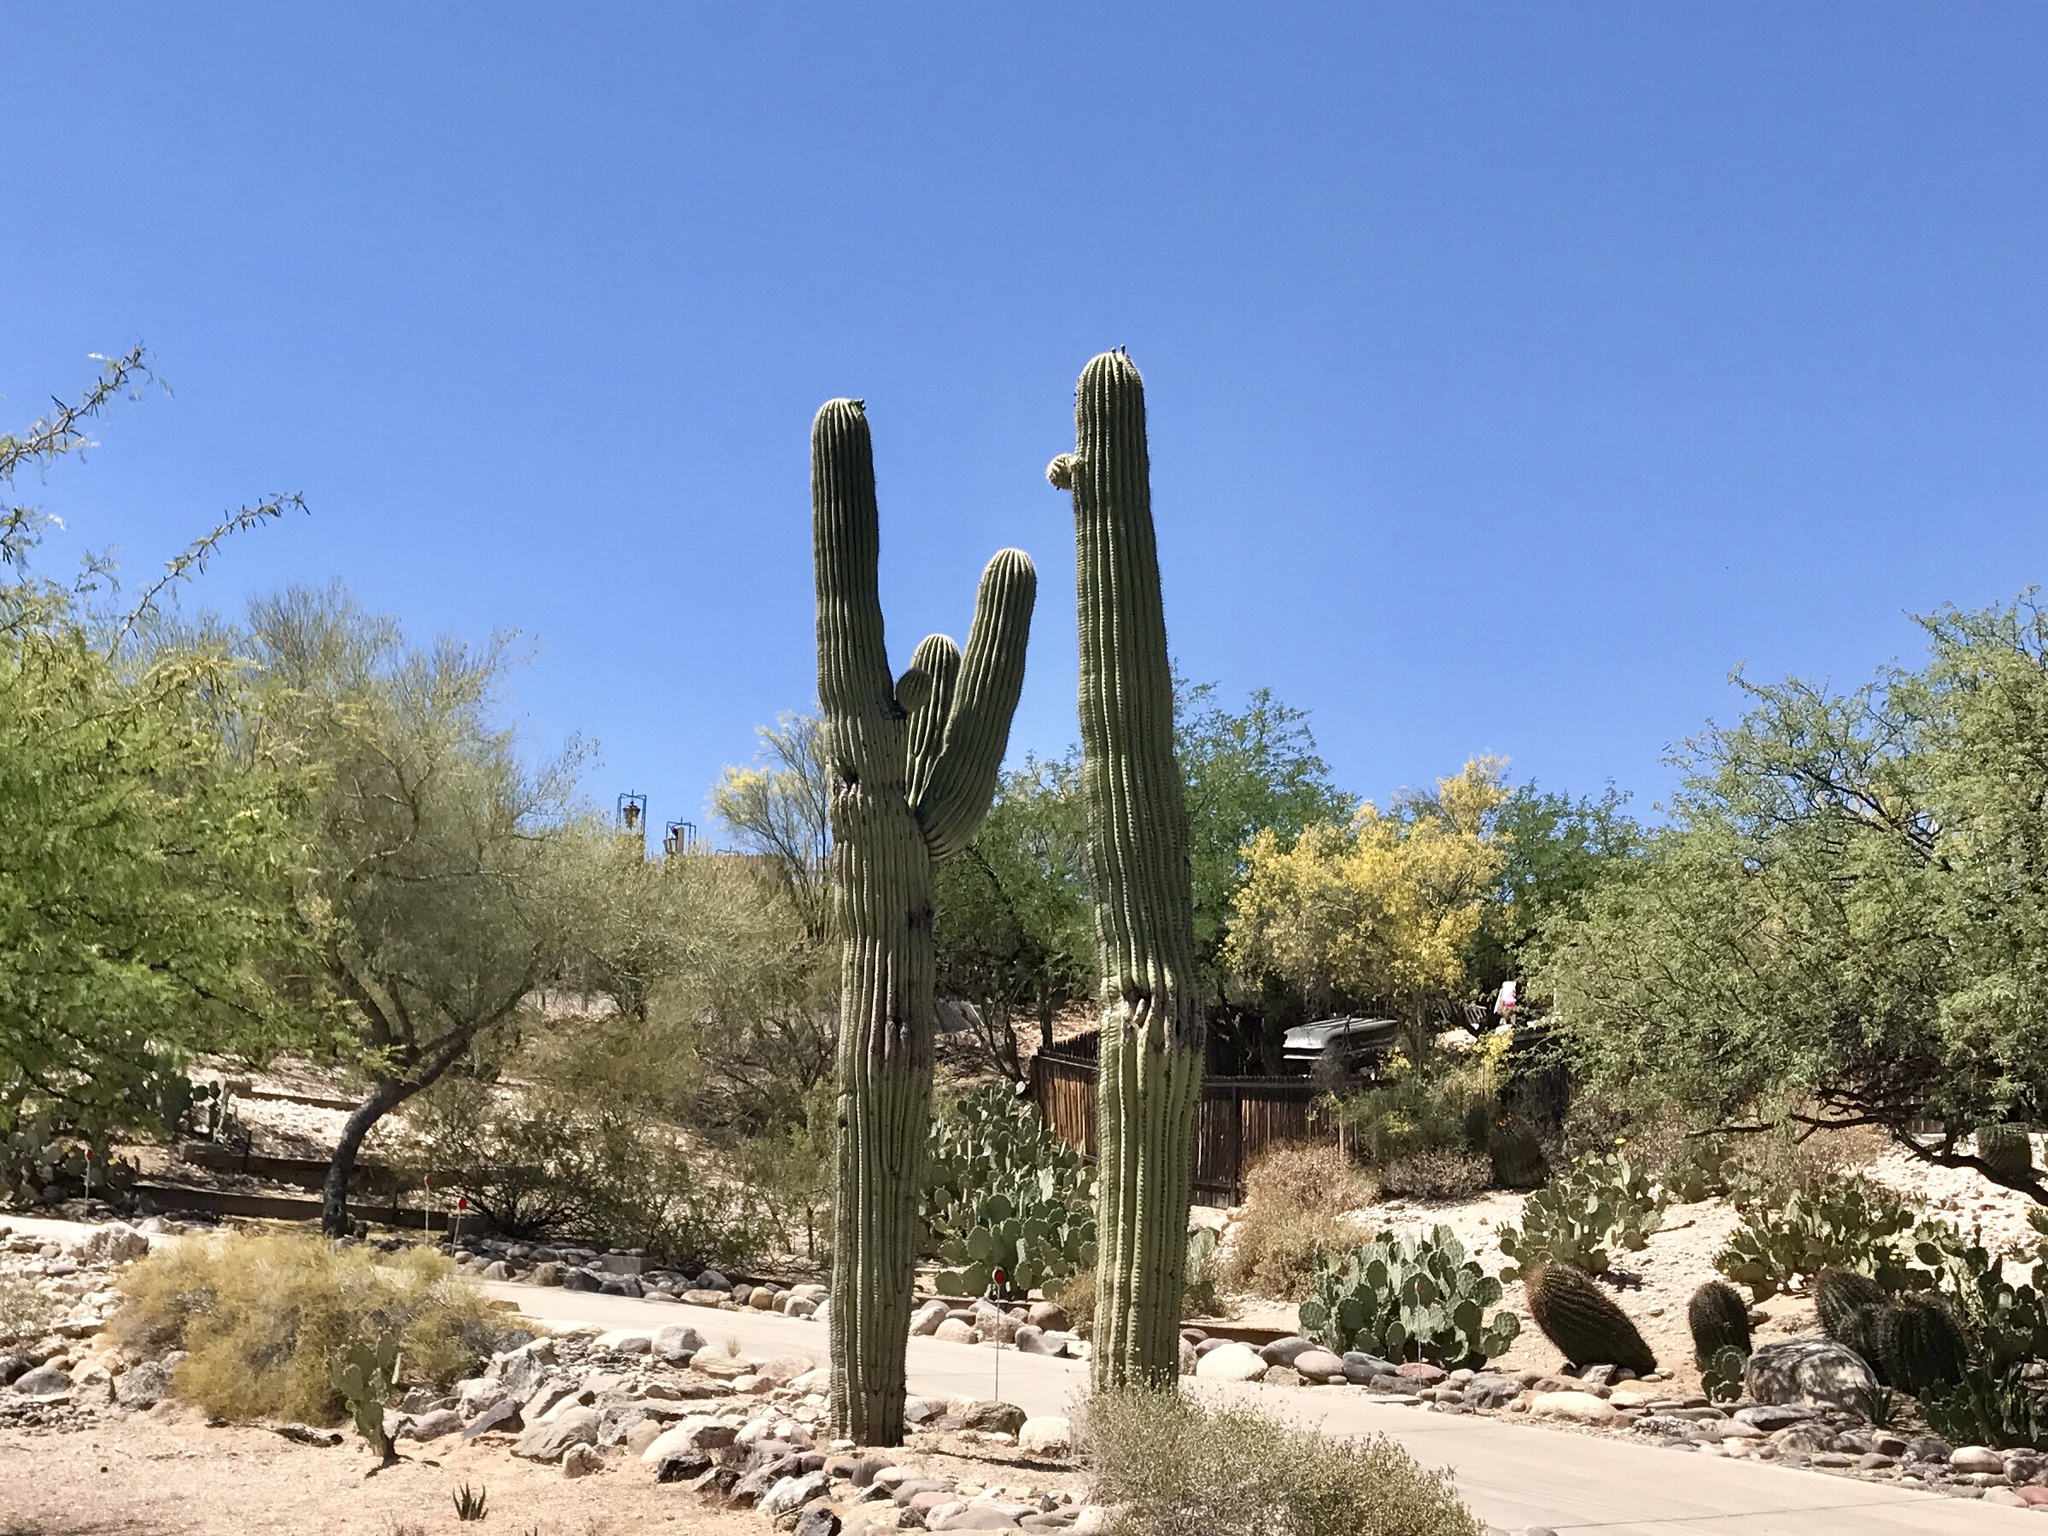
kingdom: Plantae
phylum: Tracheophyta
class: Magnoliopsida
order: Caryophyllales
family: Cactaceae
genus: Carnegiea
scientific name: Carnegiea gigantea
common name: Saguaro
